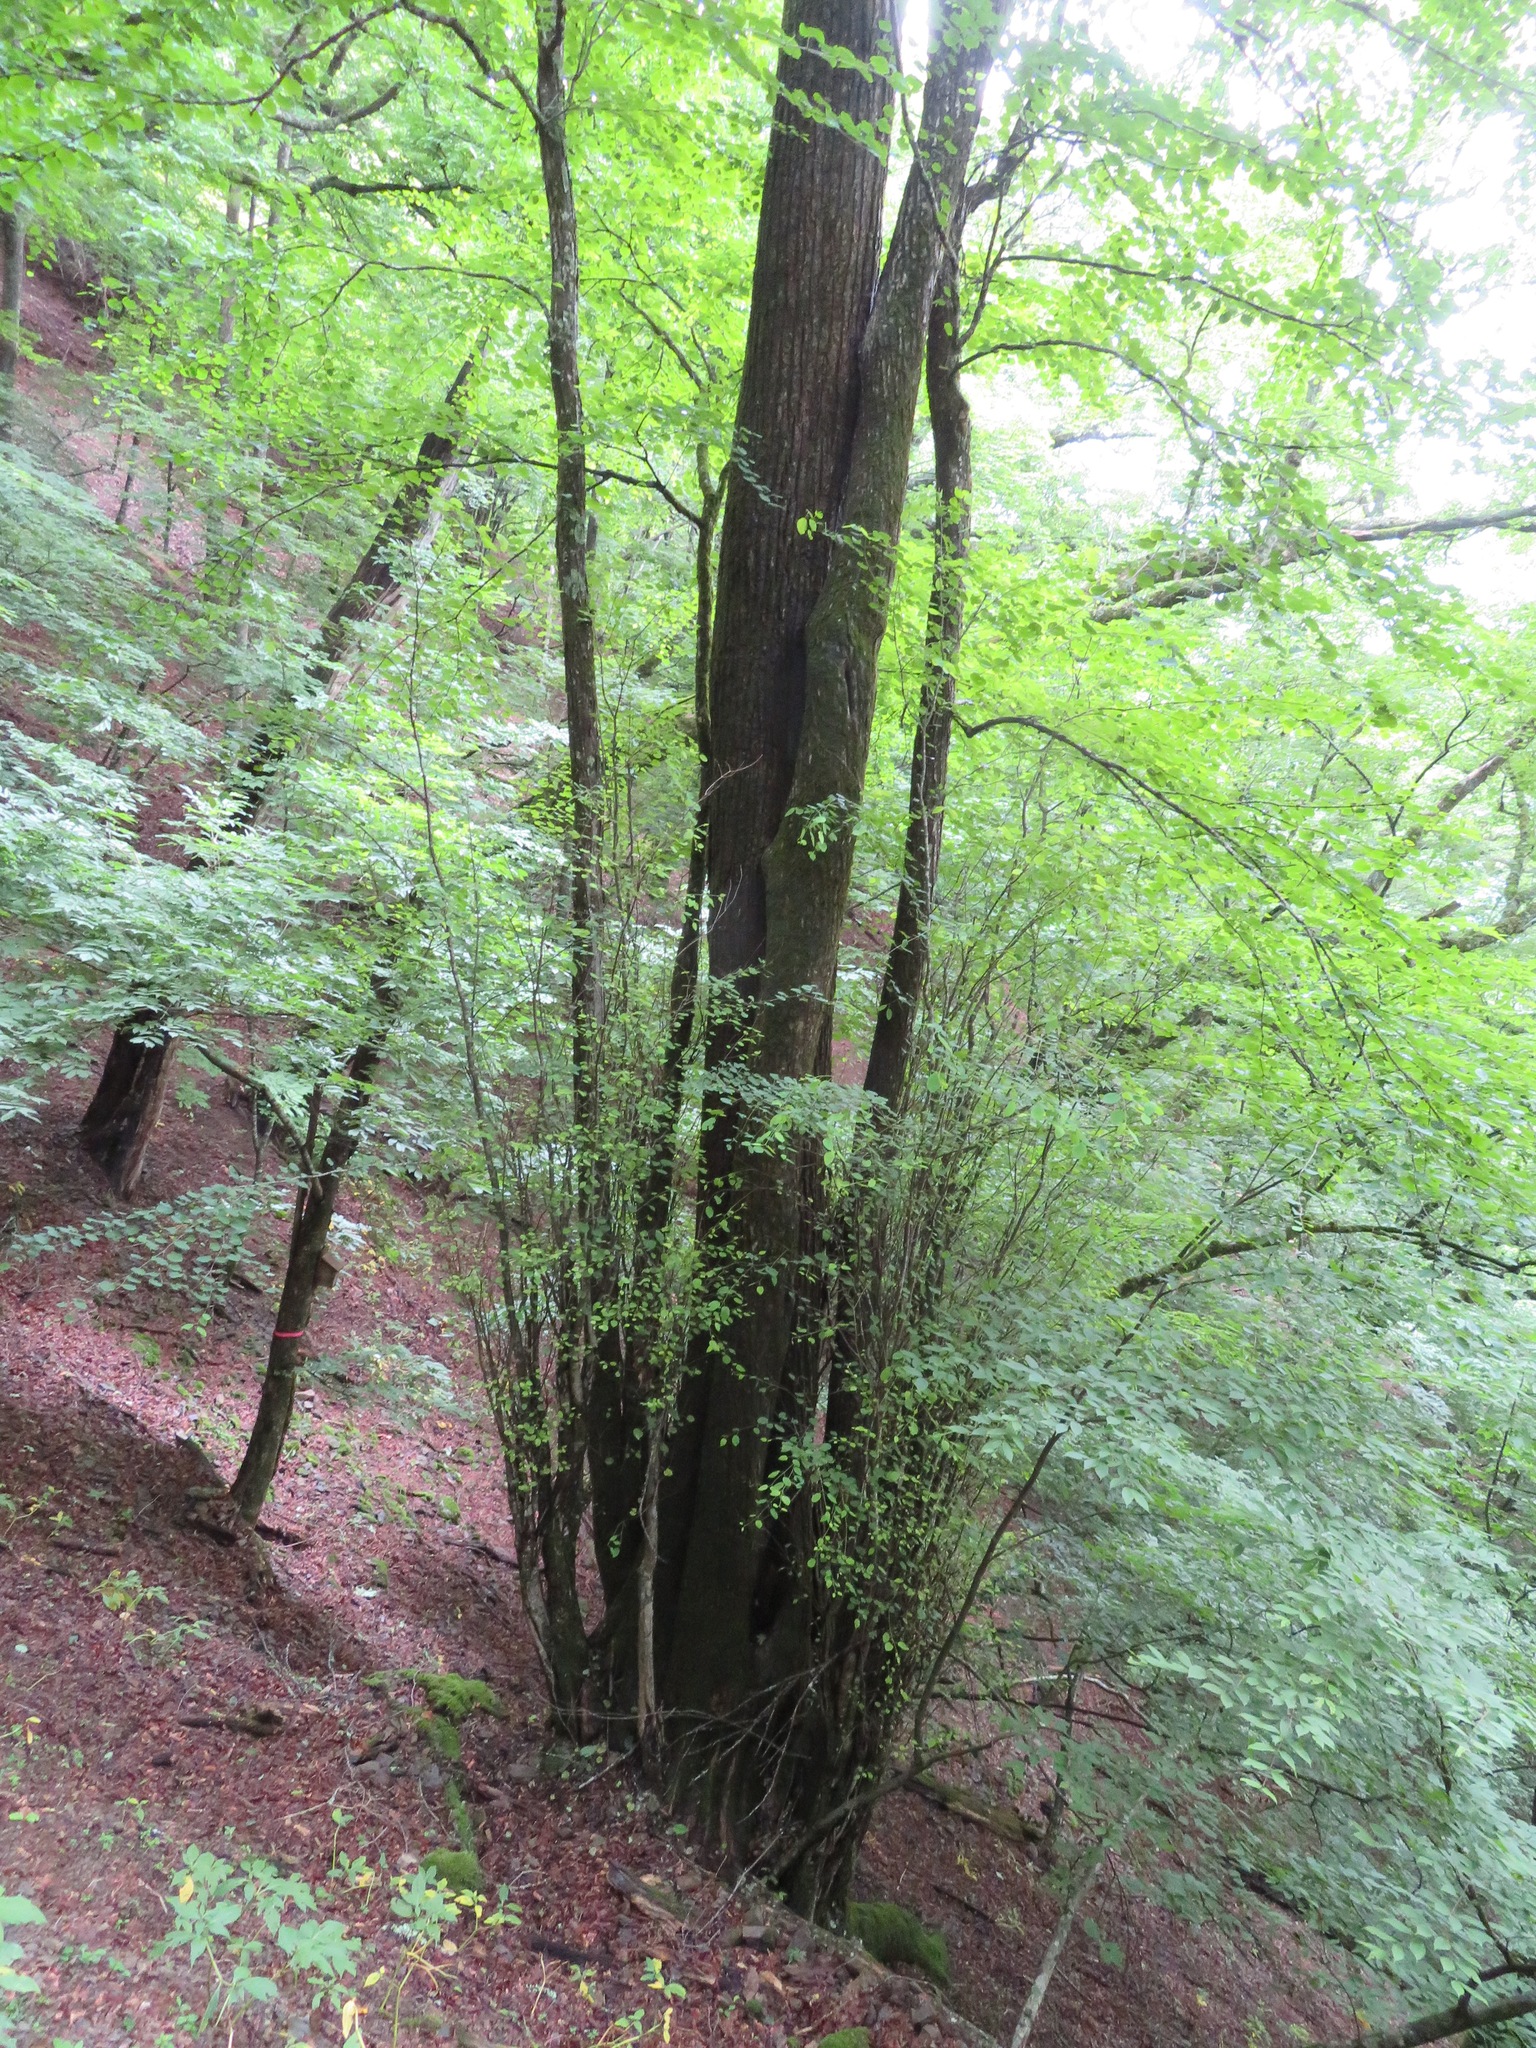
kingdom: Plantae
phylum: Tracheophyta
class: Magnoliopsida
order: Saxifragales
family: Cercidiphyllaceae
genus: Cercidiphyllum
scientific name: Cercidiphyllum japonicum
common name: Katsura tree
